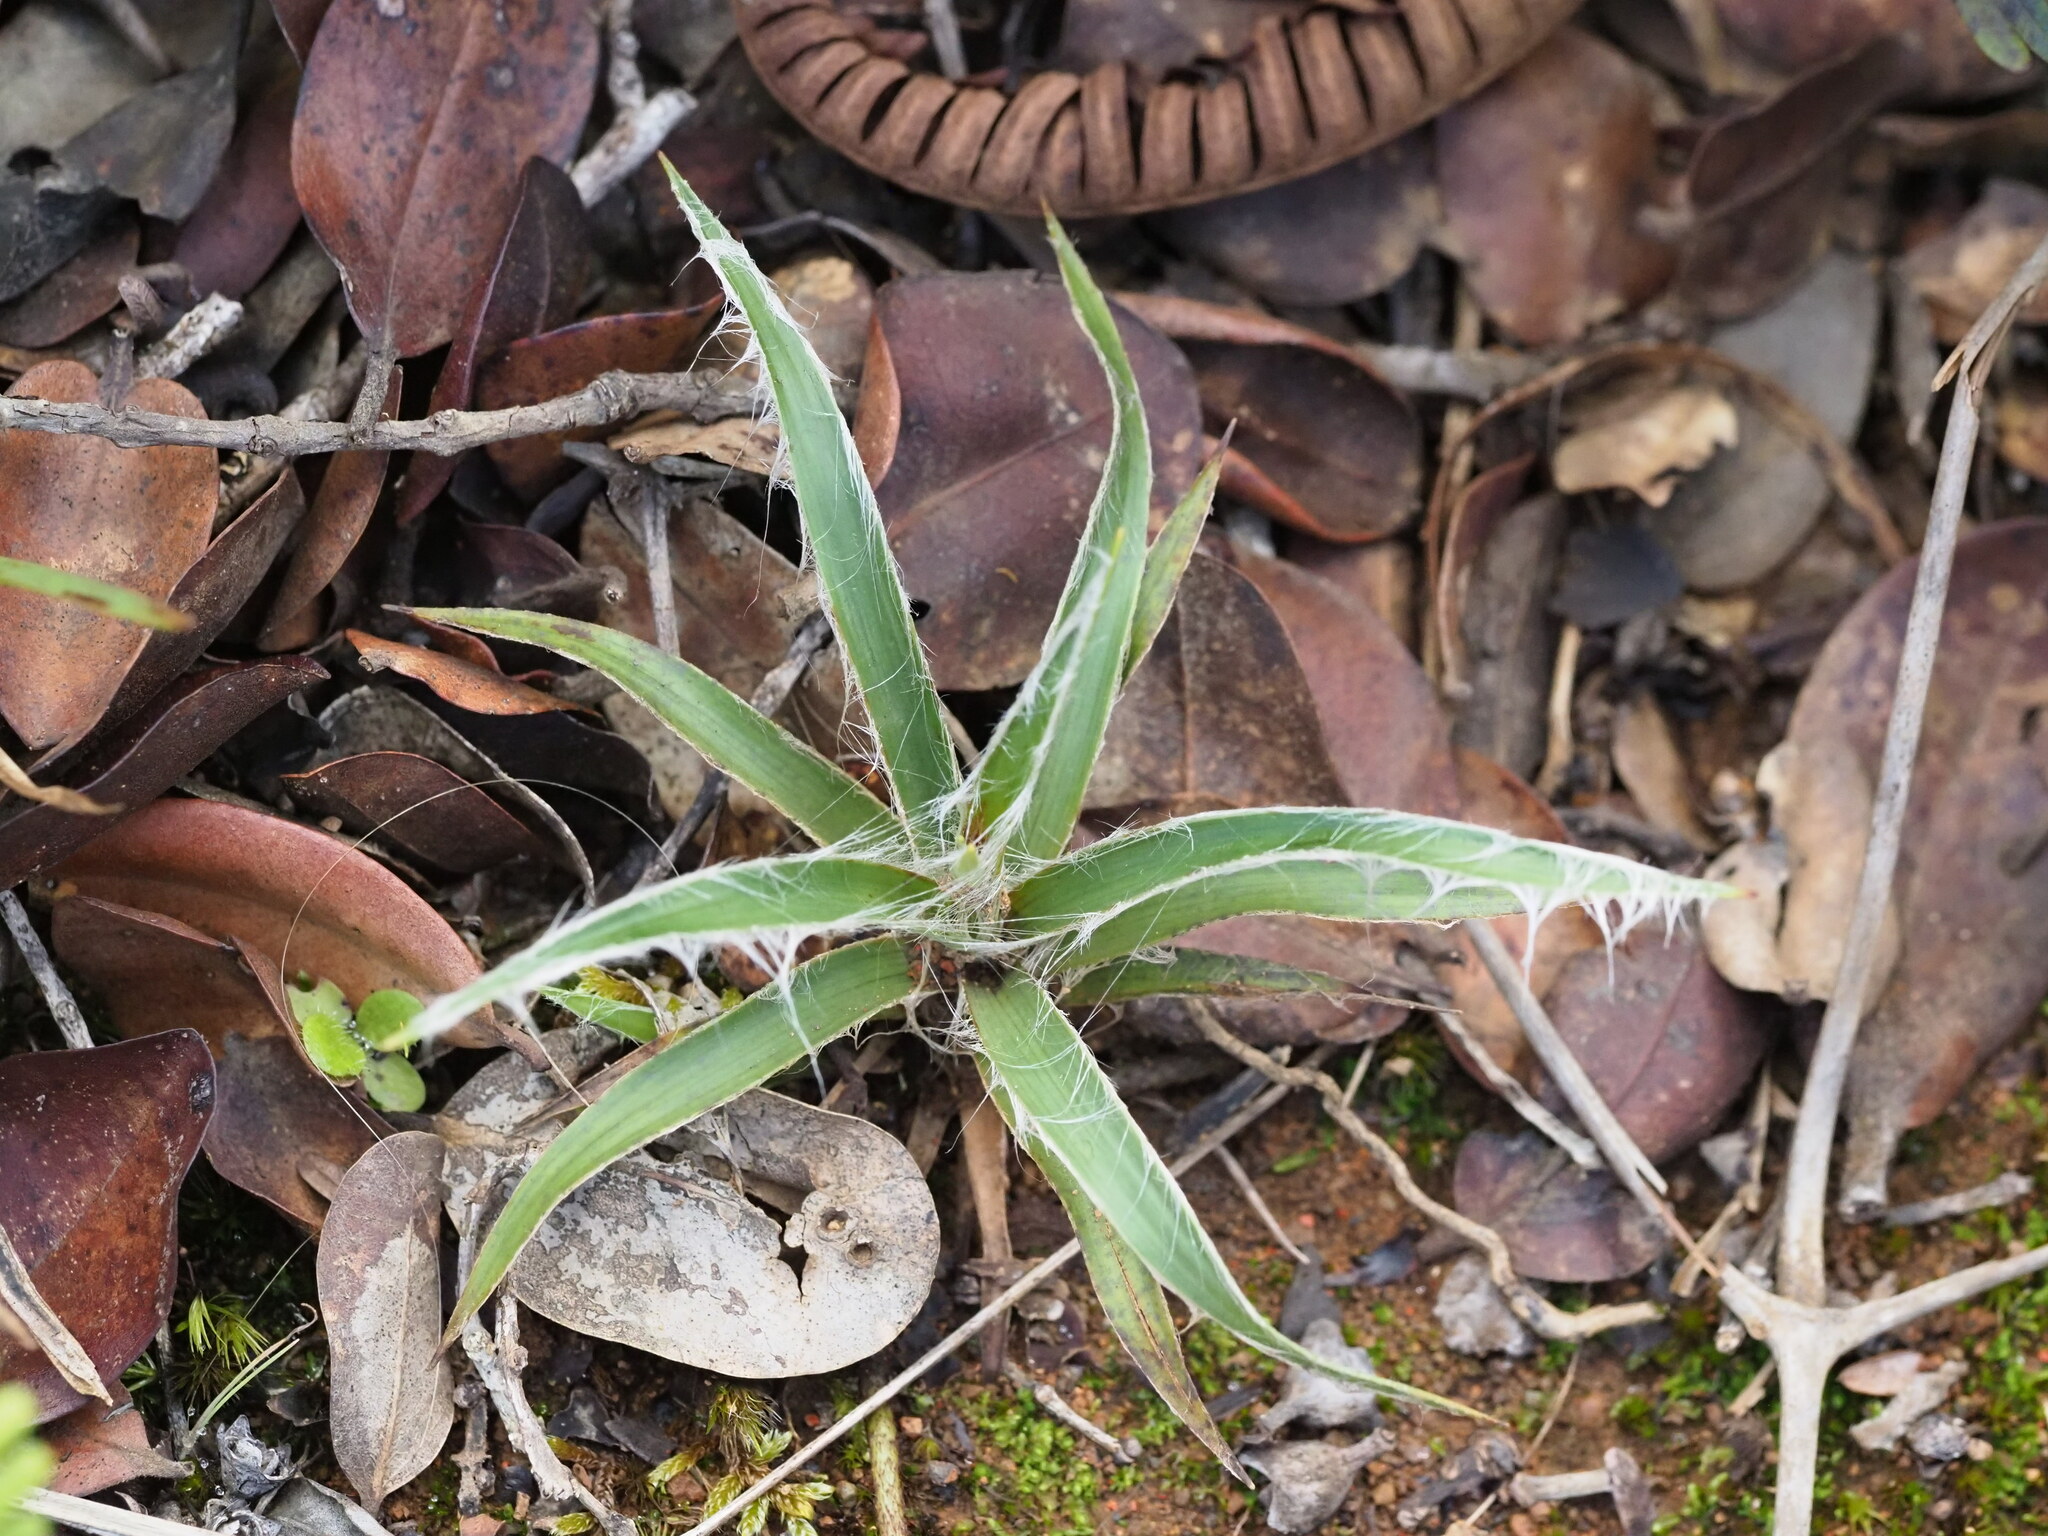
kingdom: Plantae
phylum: Tracheophyta
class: Liliopsida
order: Poales
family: Juncaceae
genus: Luzula
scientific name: Luzula hawaiiensis
